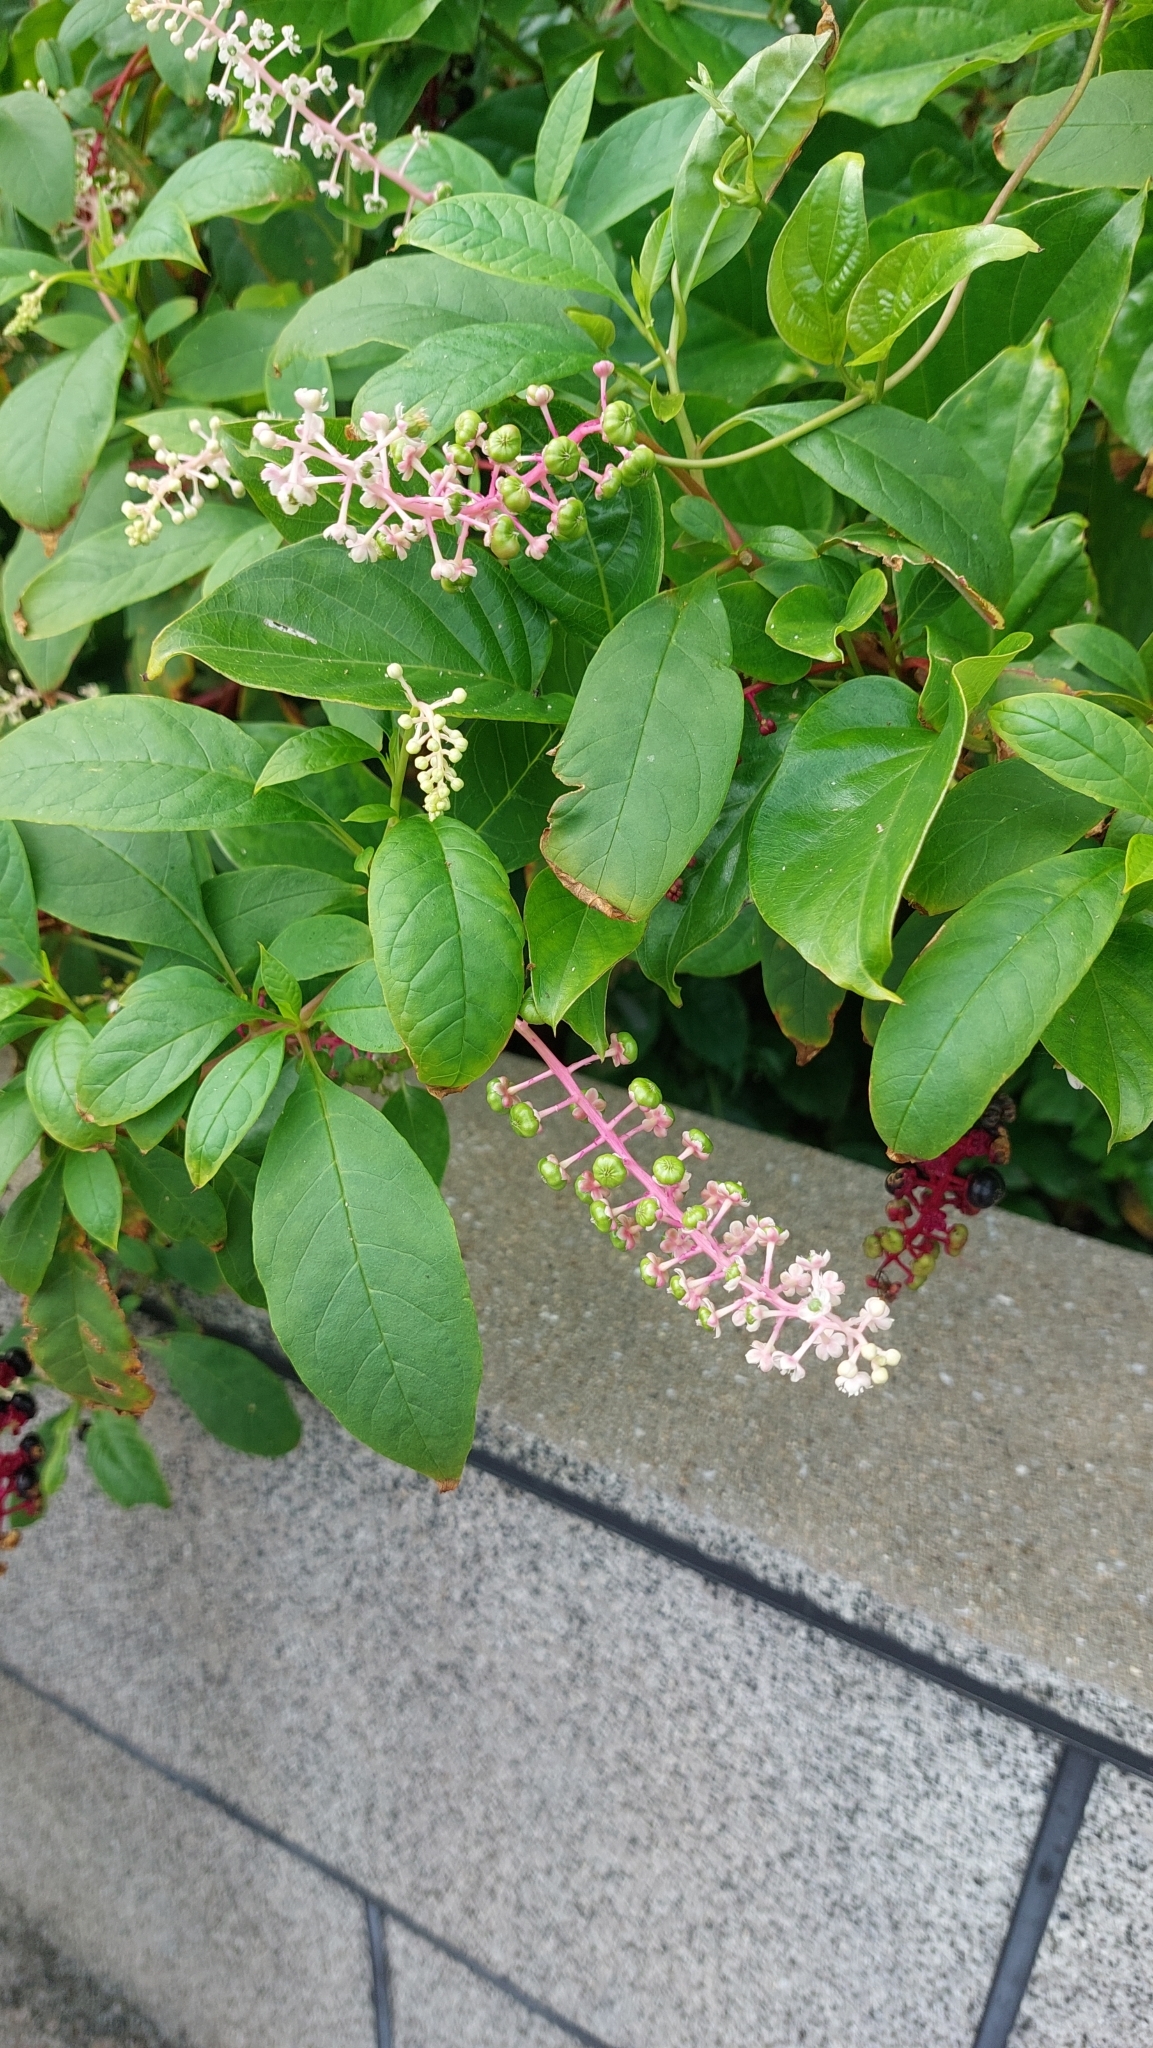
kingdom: Plantae
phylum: Tracheophyta
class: Magnoliopsida
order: Caryophyllales
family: Phytolaccaceae
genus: Phytolacca
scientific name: Phytolacca americana
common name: American pokeweed
